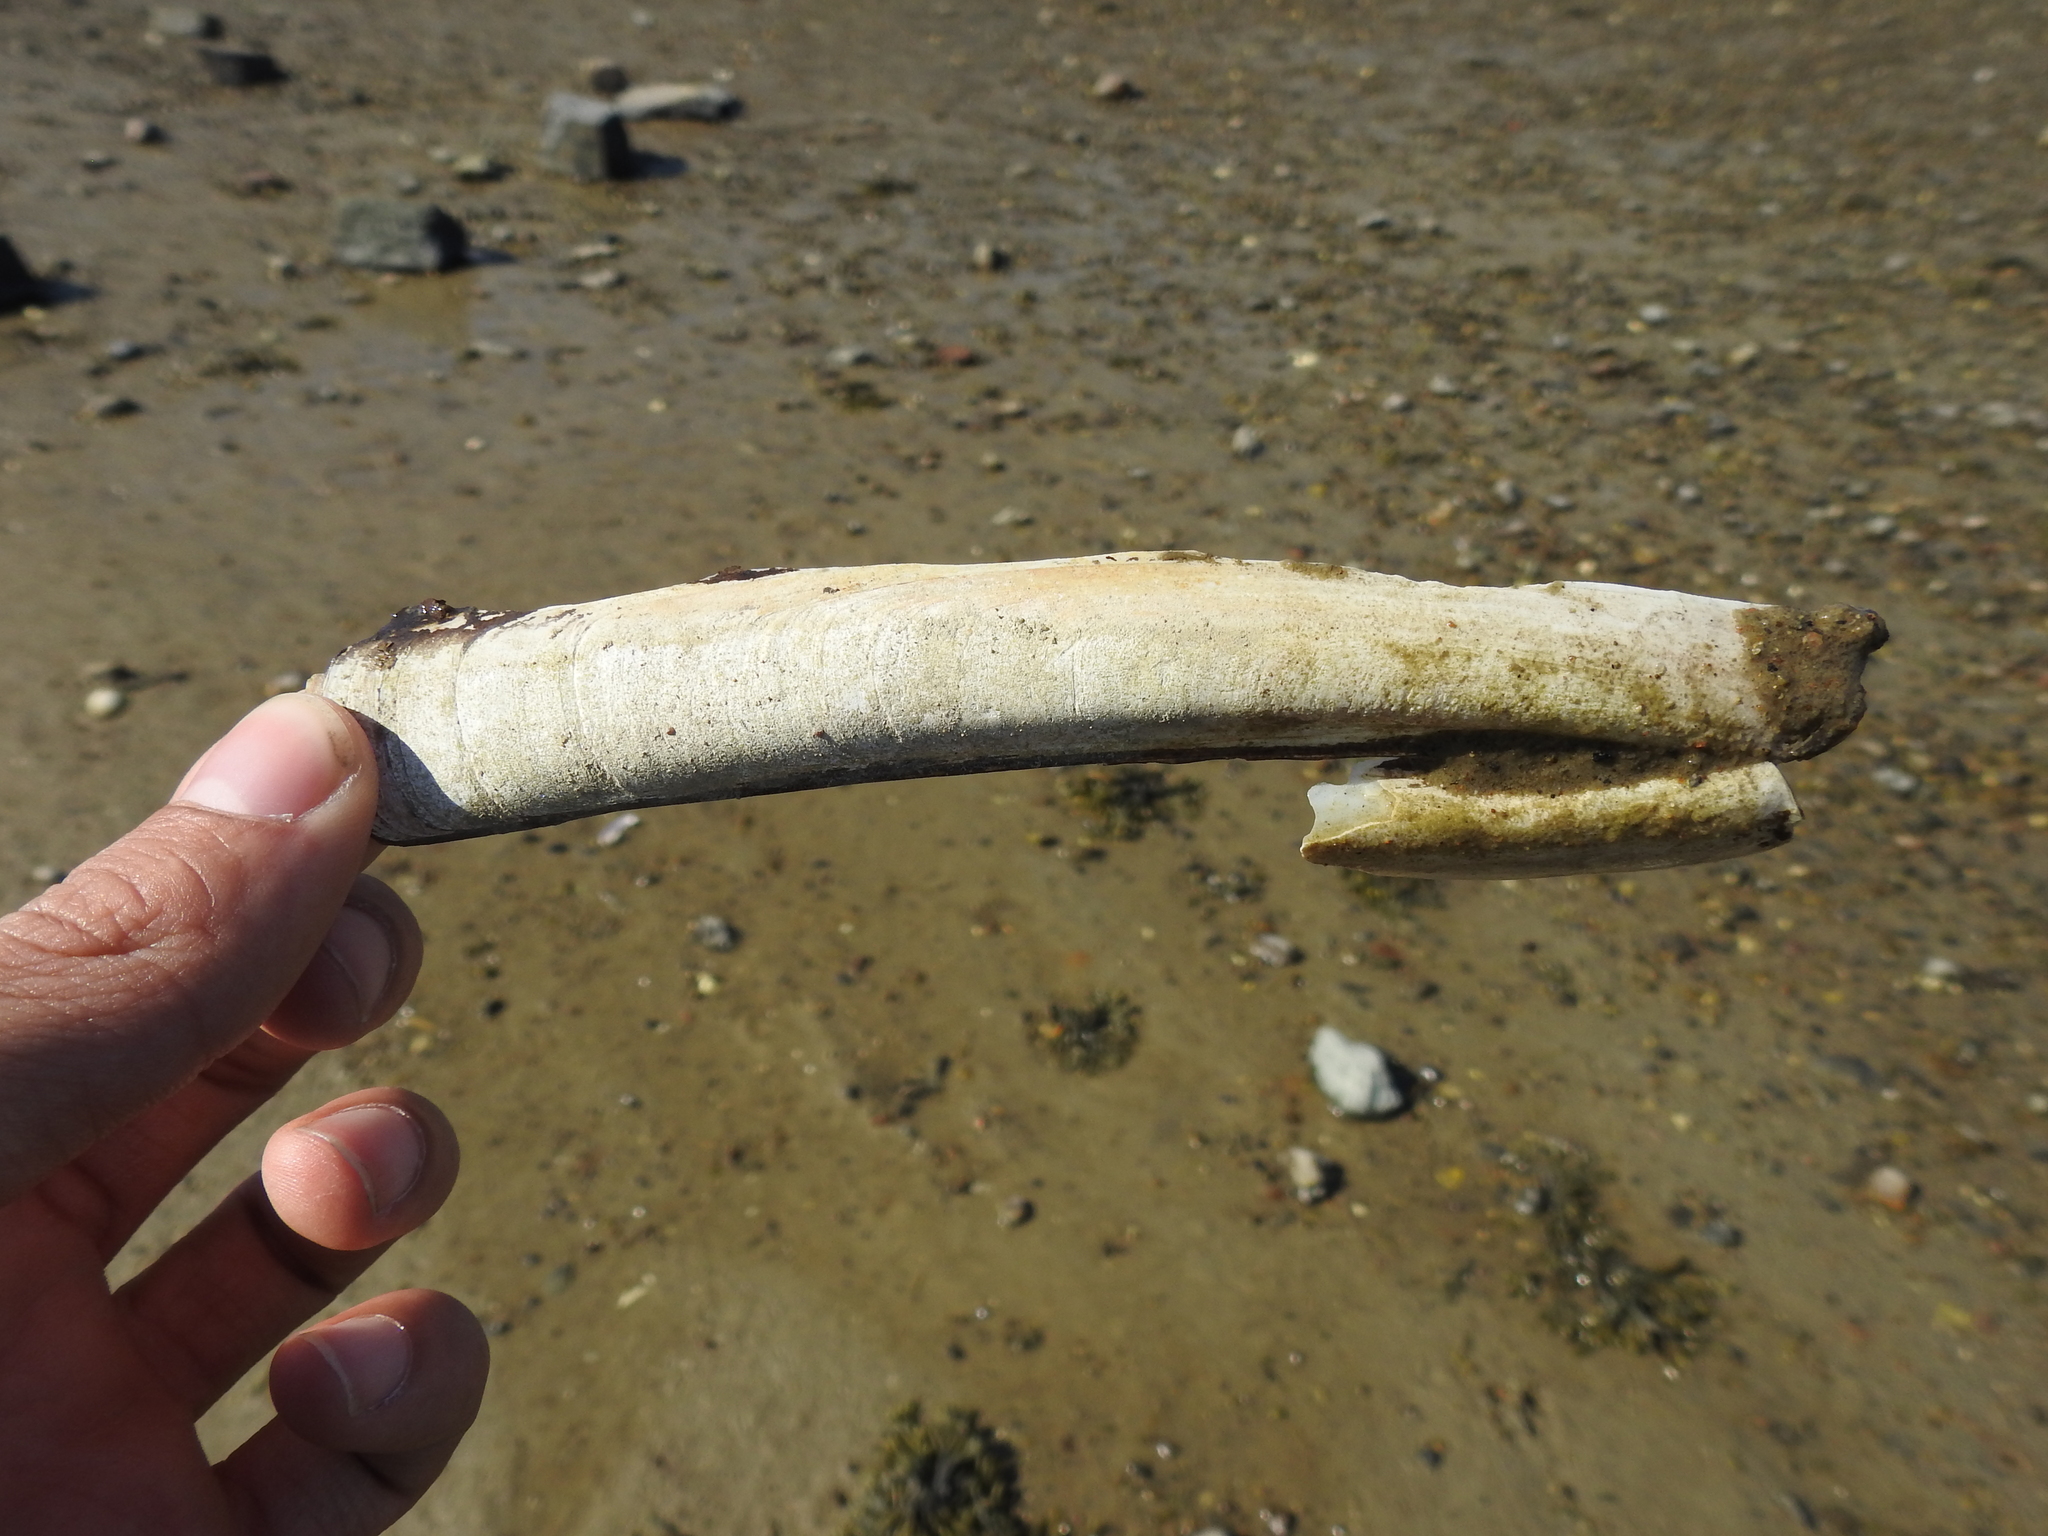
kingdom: Animalia
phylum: Mollusca
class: Bivalvia
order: Adapedonta
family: Pharidae
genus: Ensis
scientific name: Ensis leei
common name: American jack knife clam
